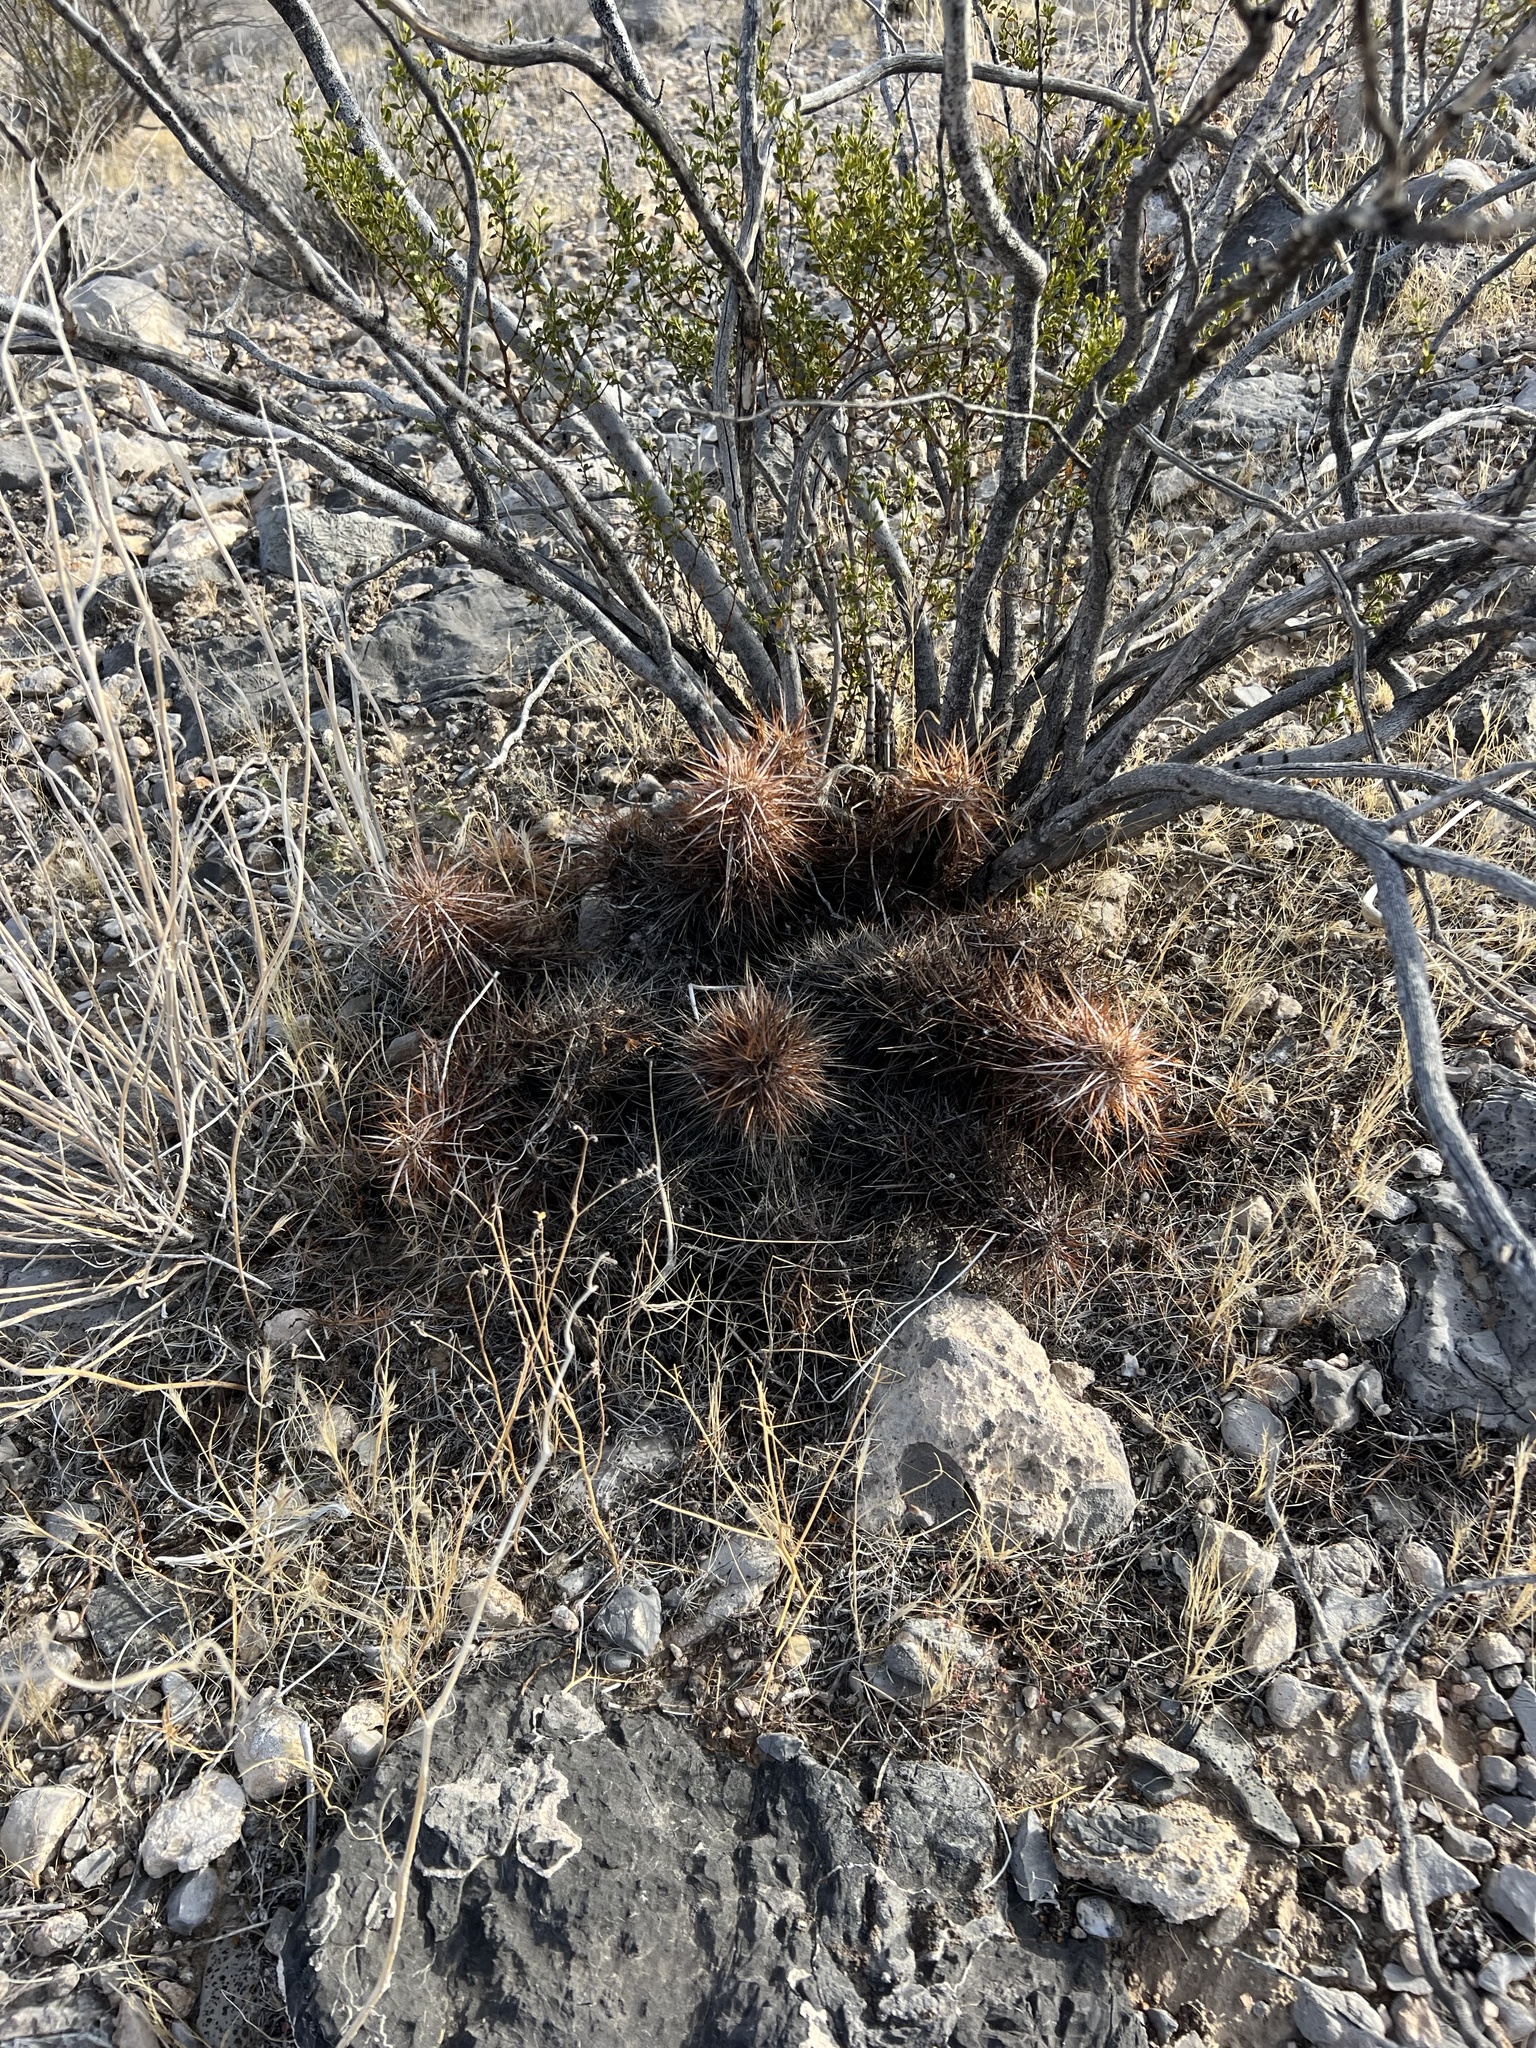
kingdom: Plantae
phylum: Tracheophyta
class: Magnoliopsida
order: Caryophyllales
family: Cactaceae
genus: Echinocereus
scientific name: Echinocereus engelmannii
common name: Engelmann's hedgehog cactus
